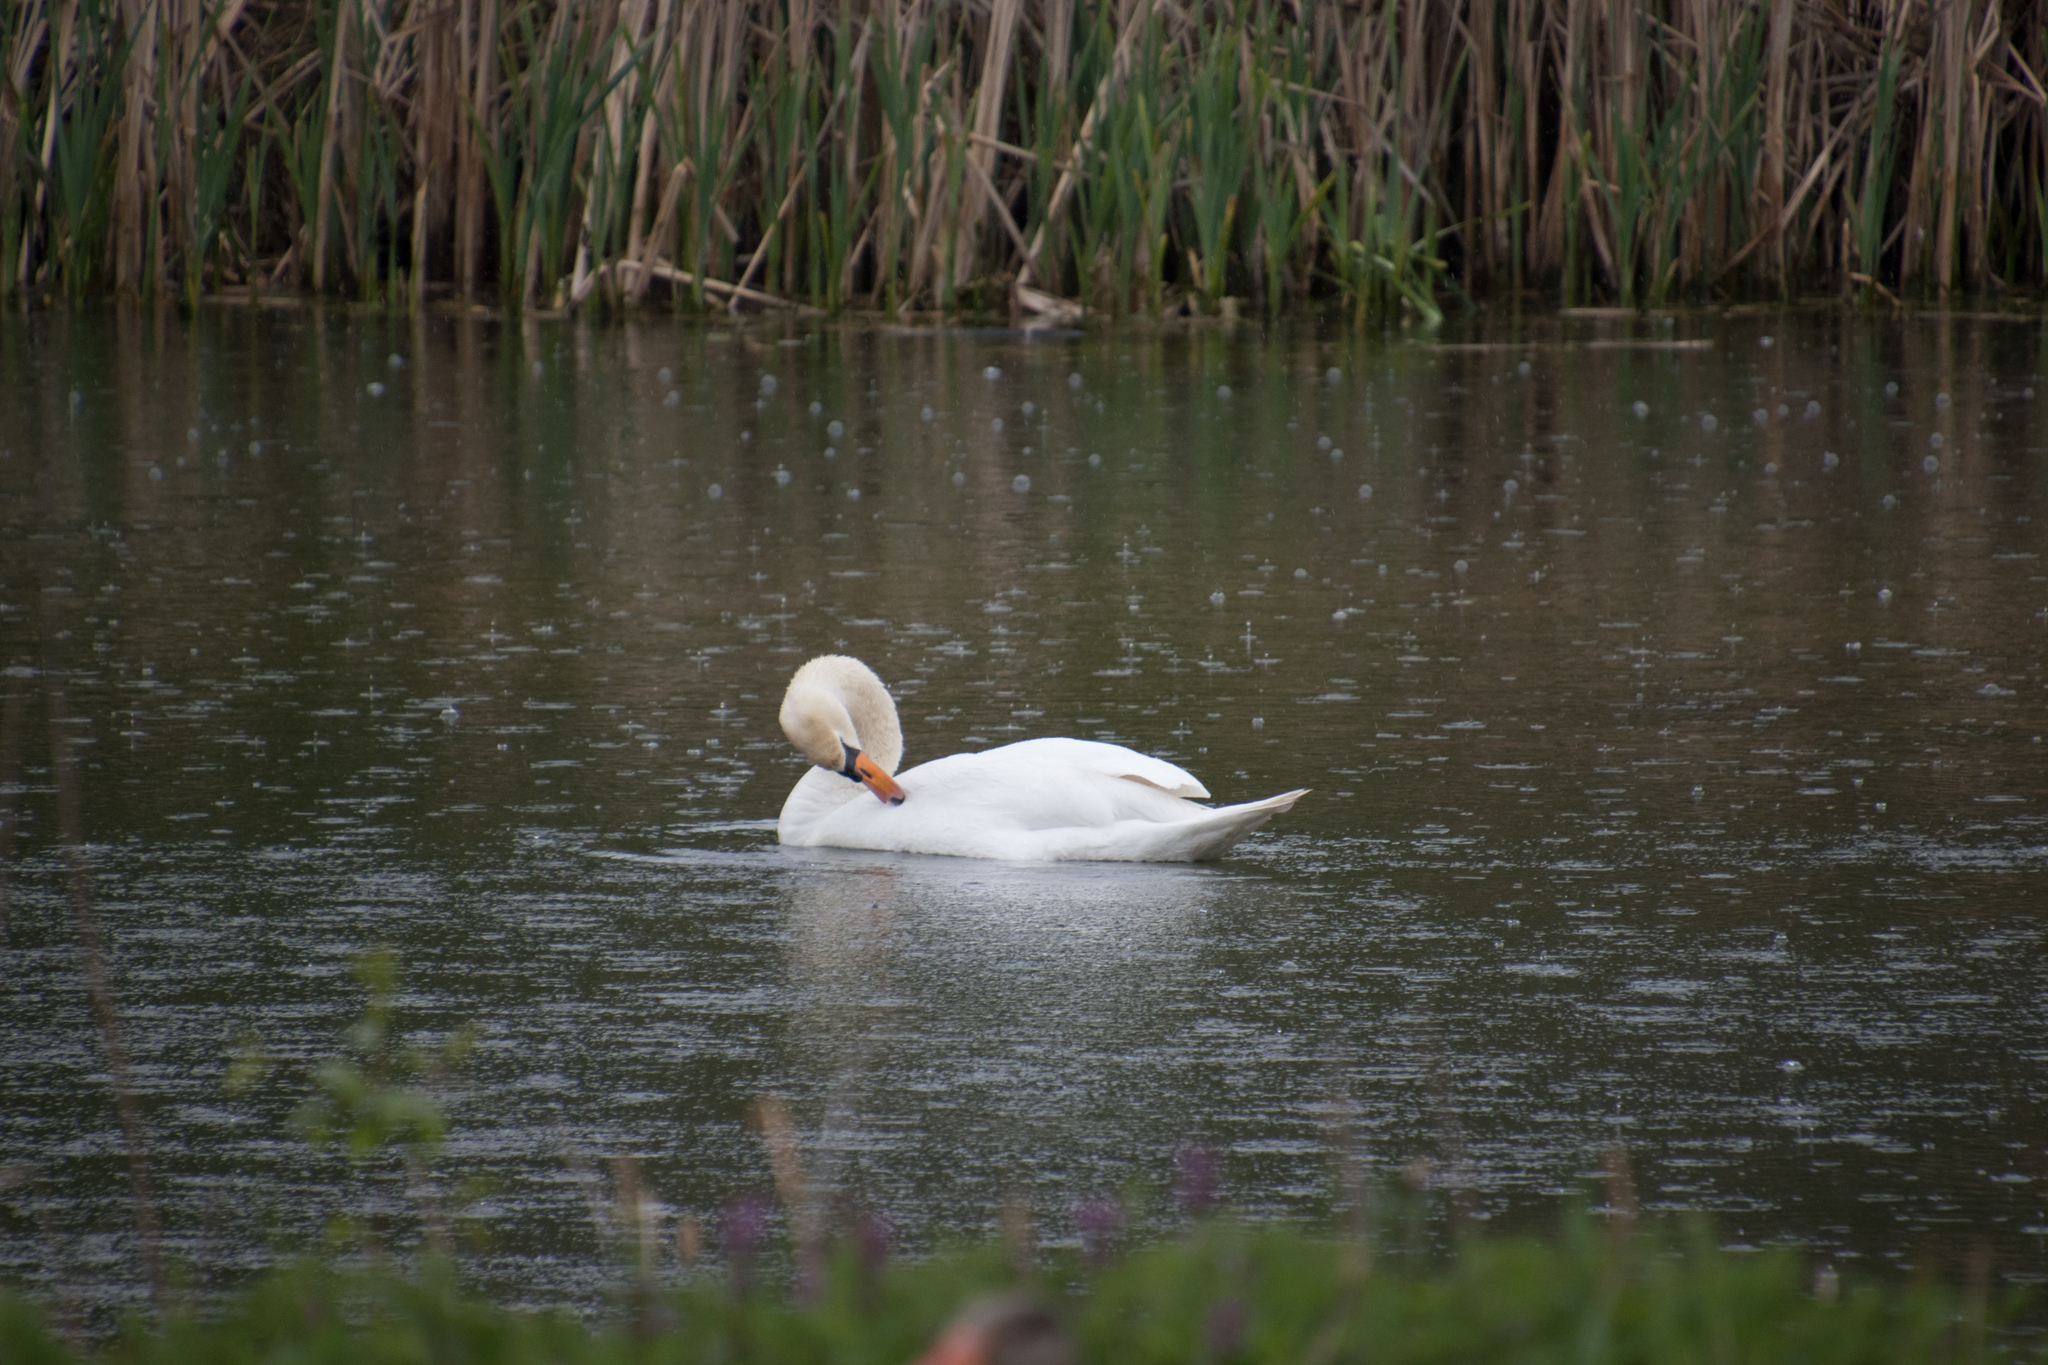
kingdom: Animalia
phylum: Chordata
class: Aves
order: Anseriformes
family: Anatidae
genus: Cygnus
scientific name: Cygnus olor
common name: Mute swan
